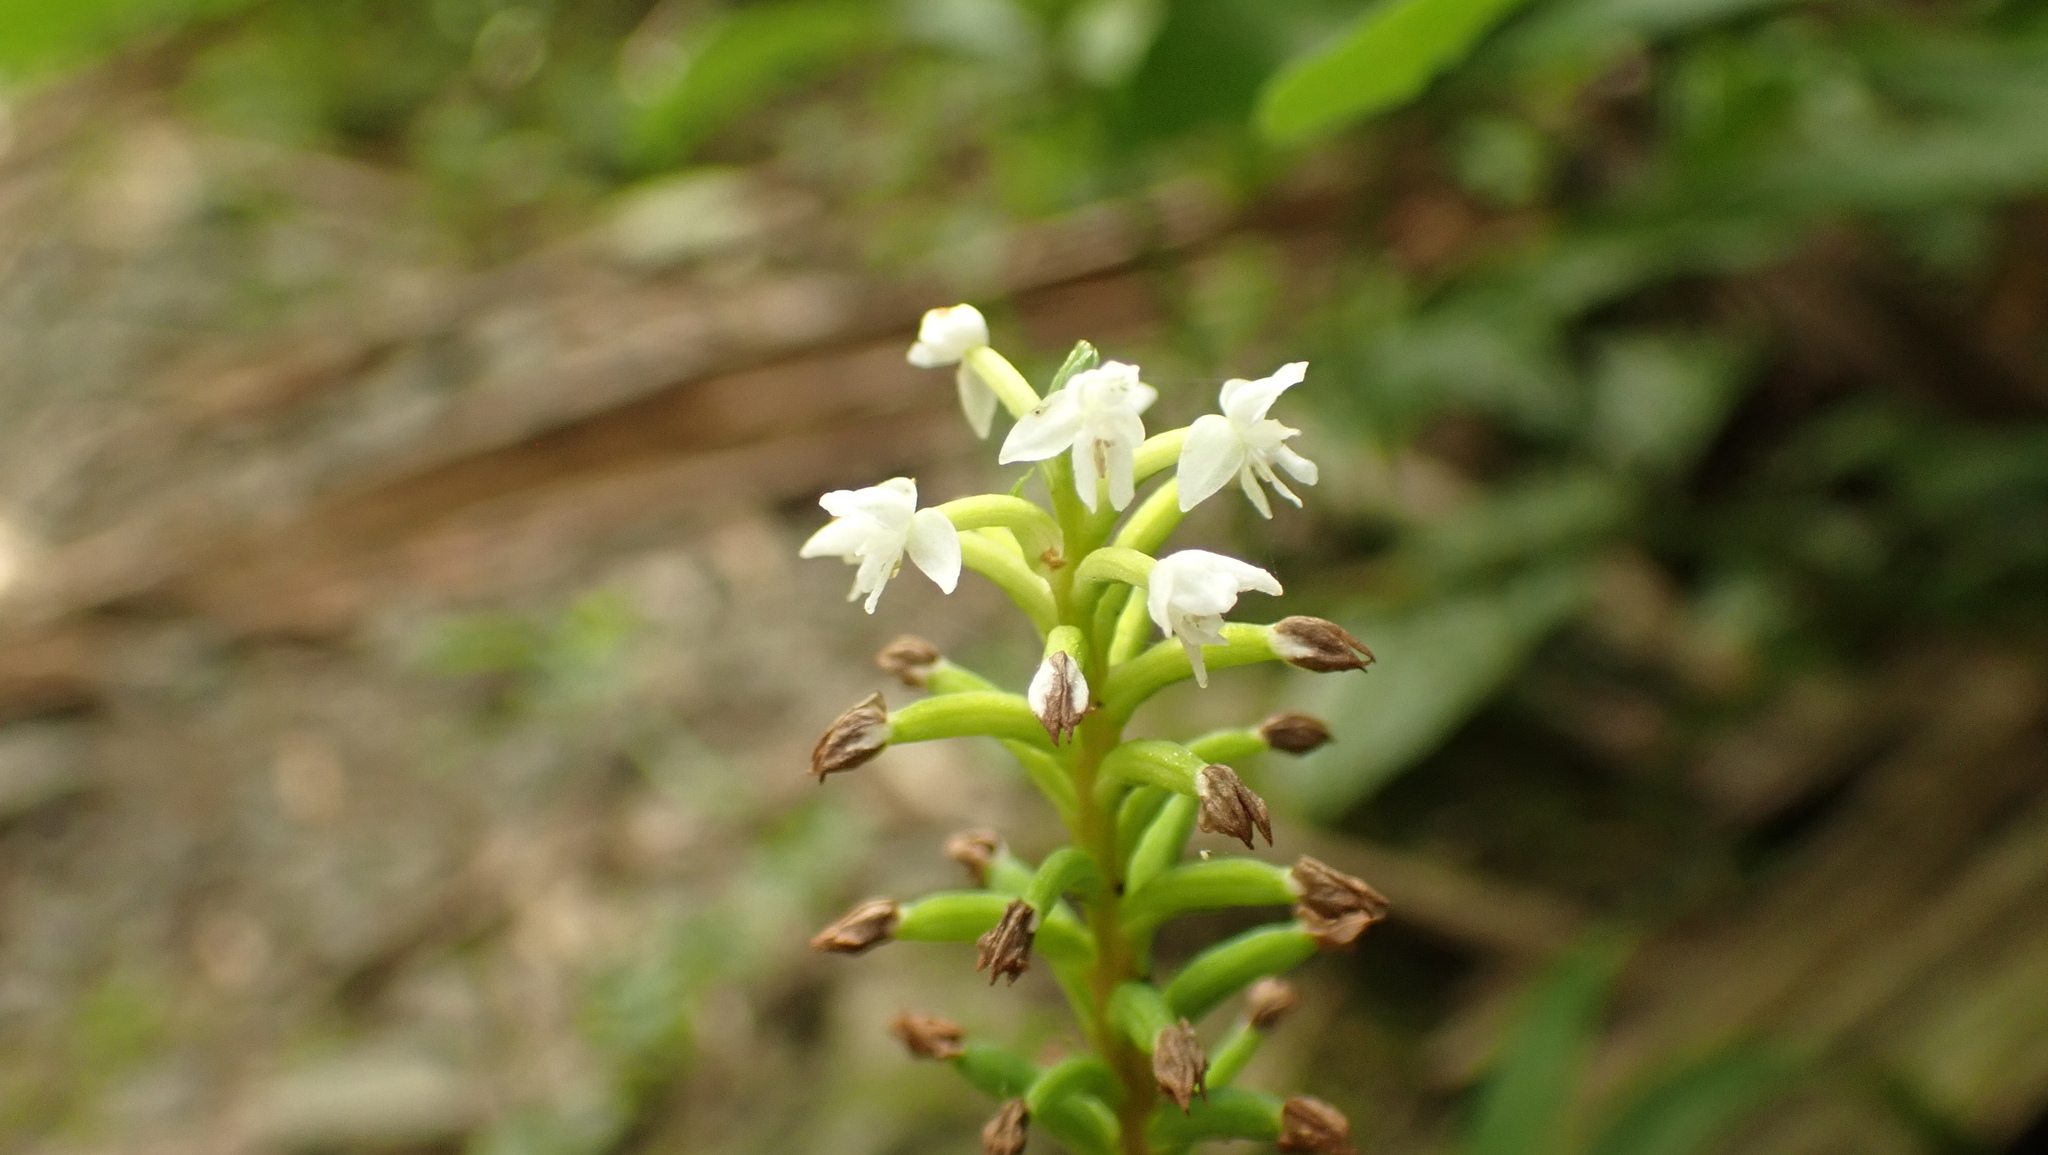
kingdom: Plantae
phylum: Tracheophyta
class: Liliopsida
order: Asparagales
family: Orchidaceae
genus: Cranichis
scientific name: Cranichis muscosa
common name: Cypress-knee helmet orchid
